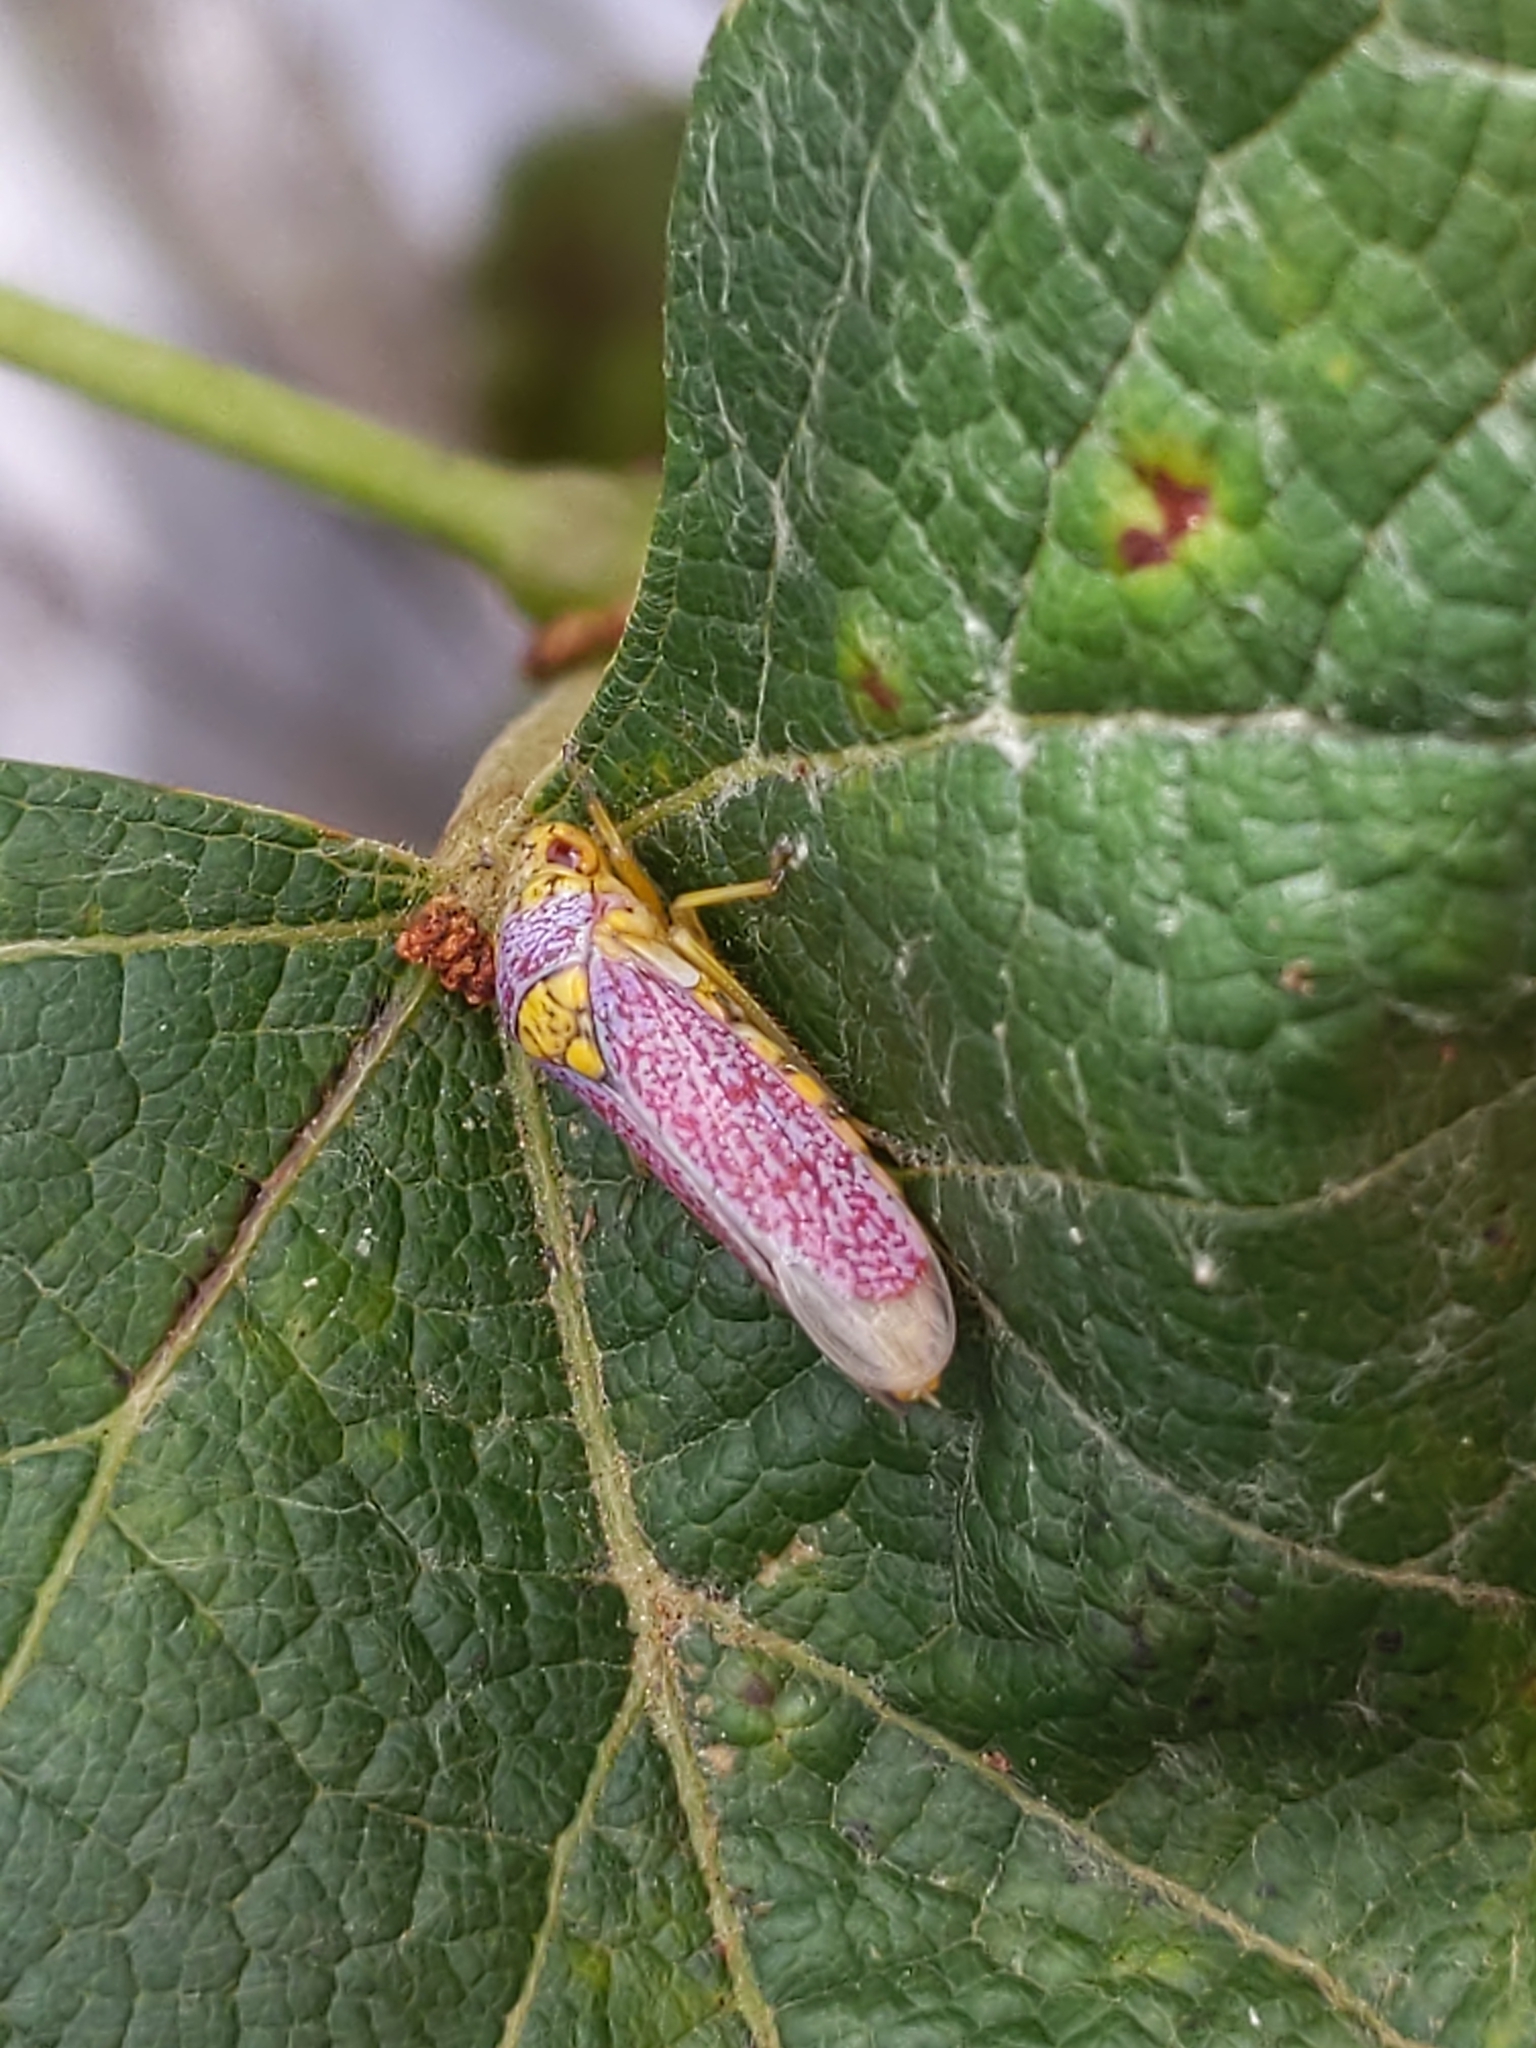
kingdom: Animalia
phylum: Arthropoda
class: Insecta
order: Hemiptera
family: Cicadellidae
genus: Oncometopia
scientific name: Oncometopia orbona
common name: Broad-headed sharpshooter
